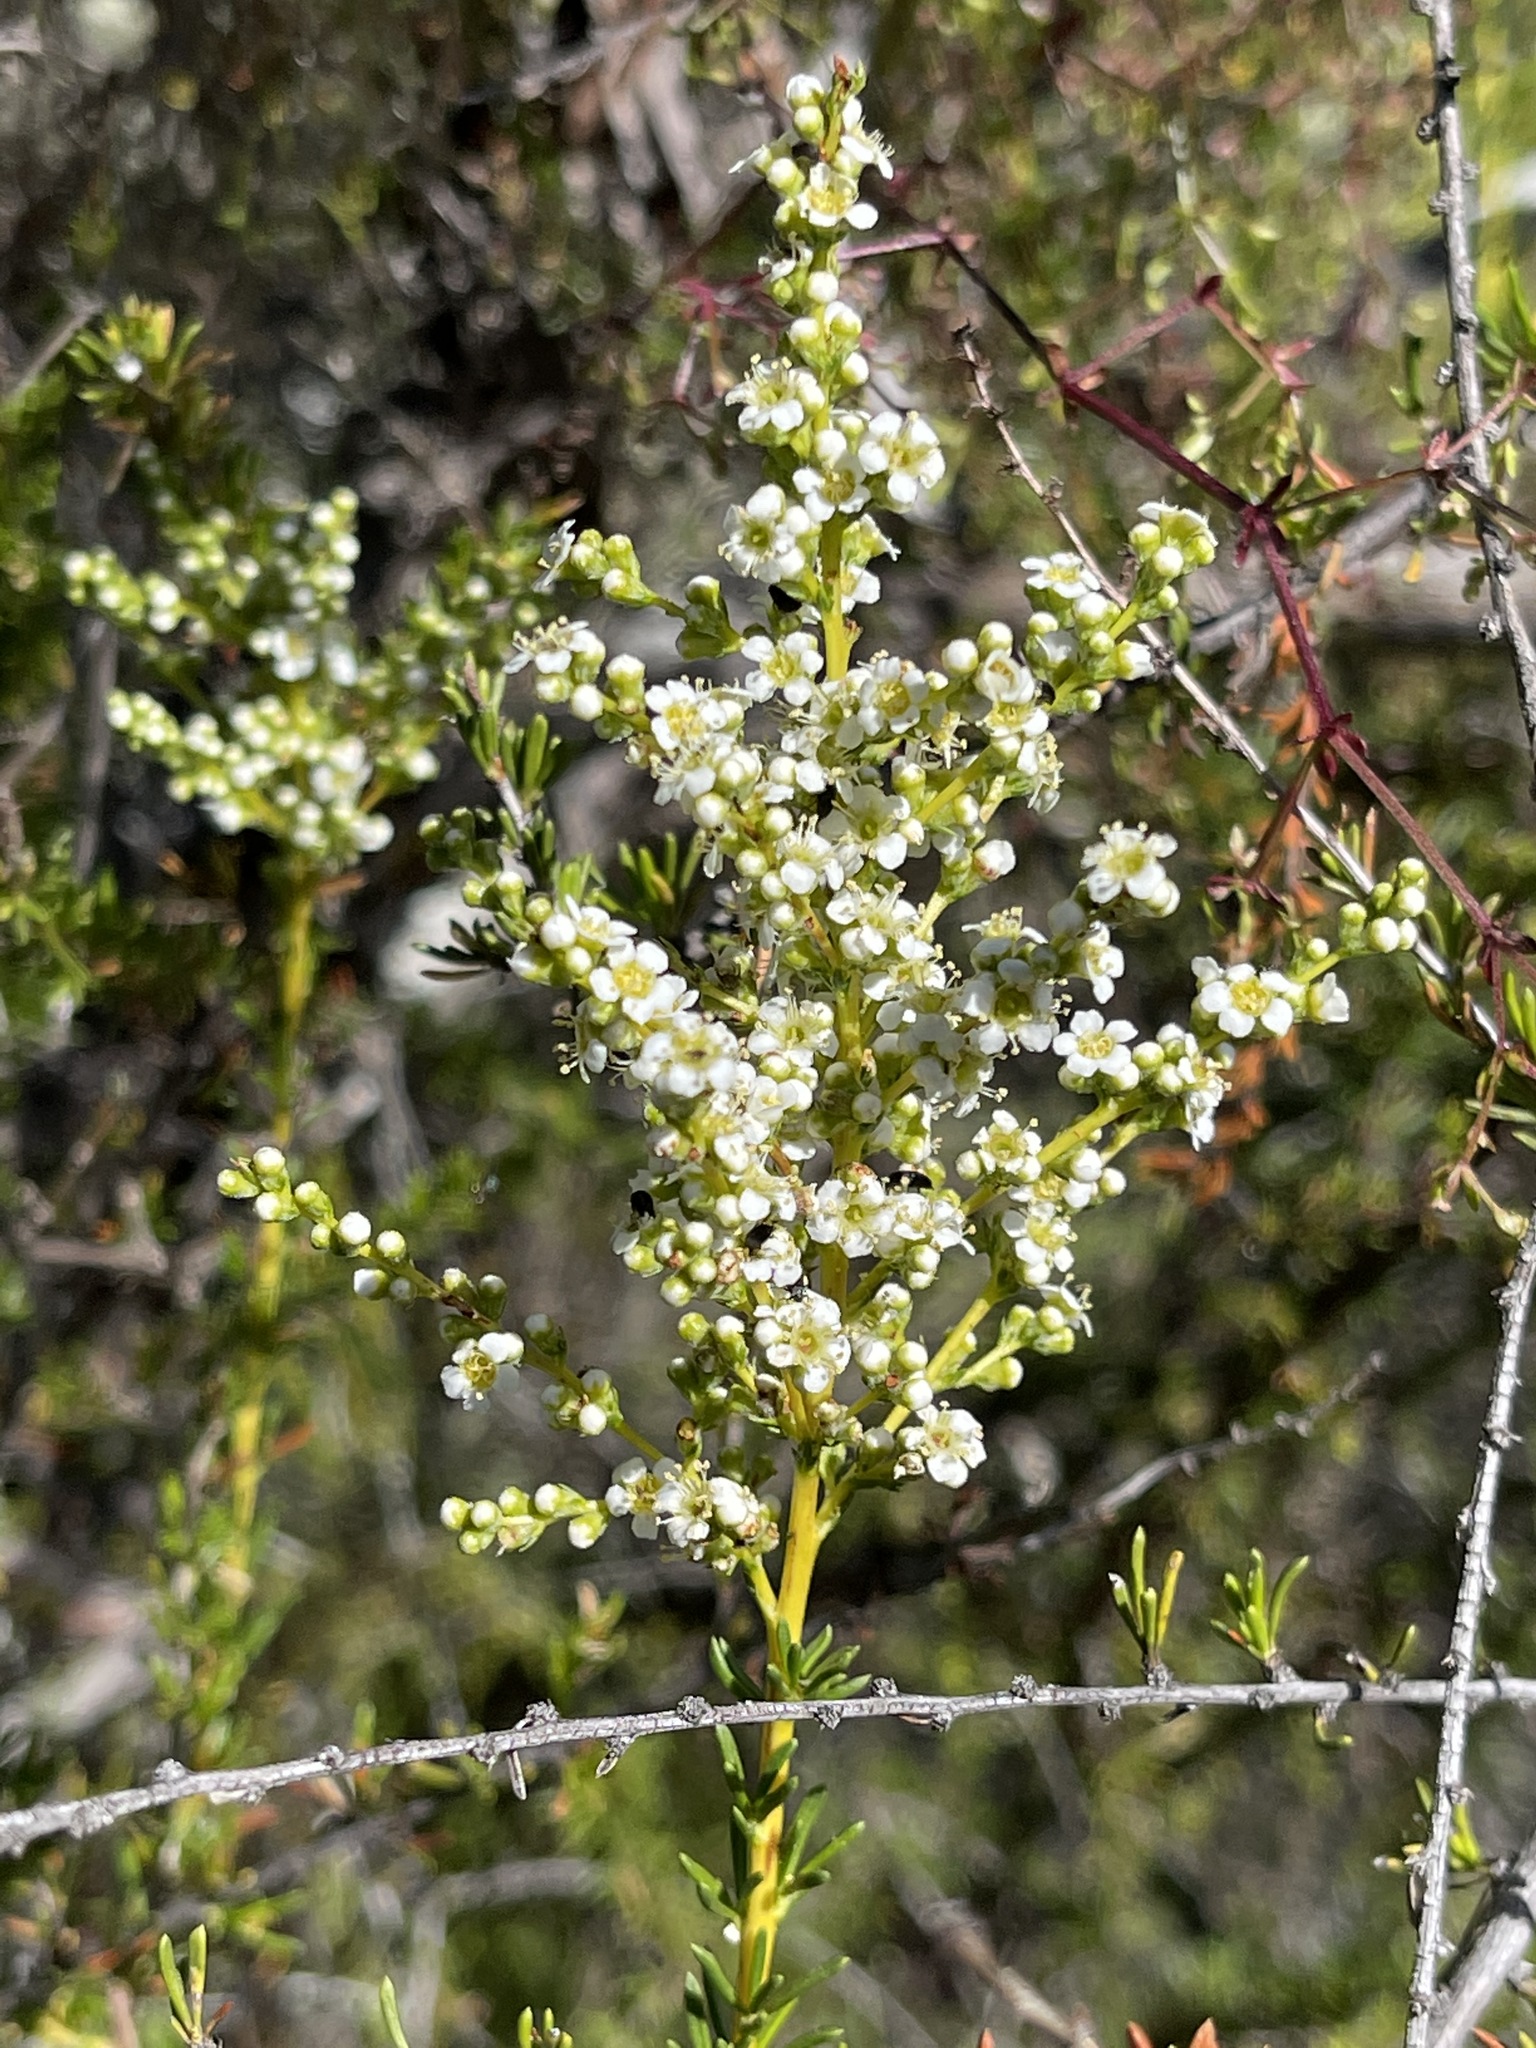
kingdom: Plantae
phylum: Tracheophyta
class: Magnoliopsida
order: Rosales
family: Rosaceae
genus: Adenostoma
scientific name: Adenostoma fasciculatum
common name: Chamise
